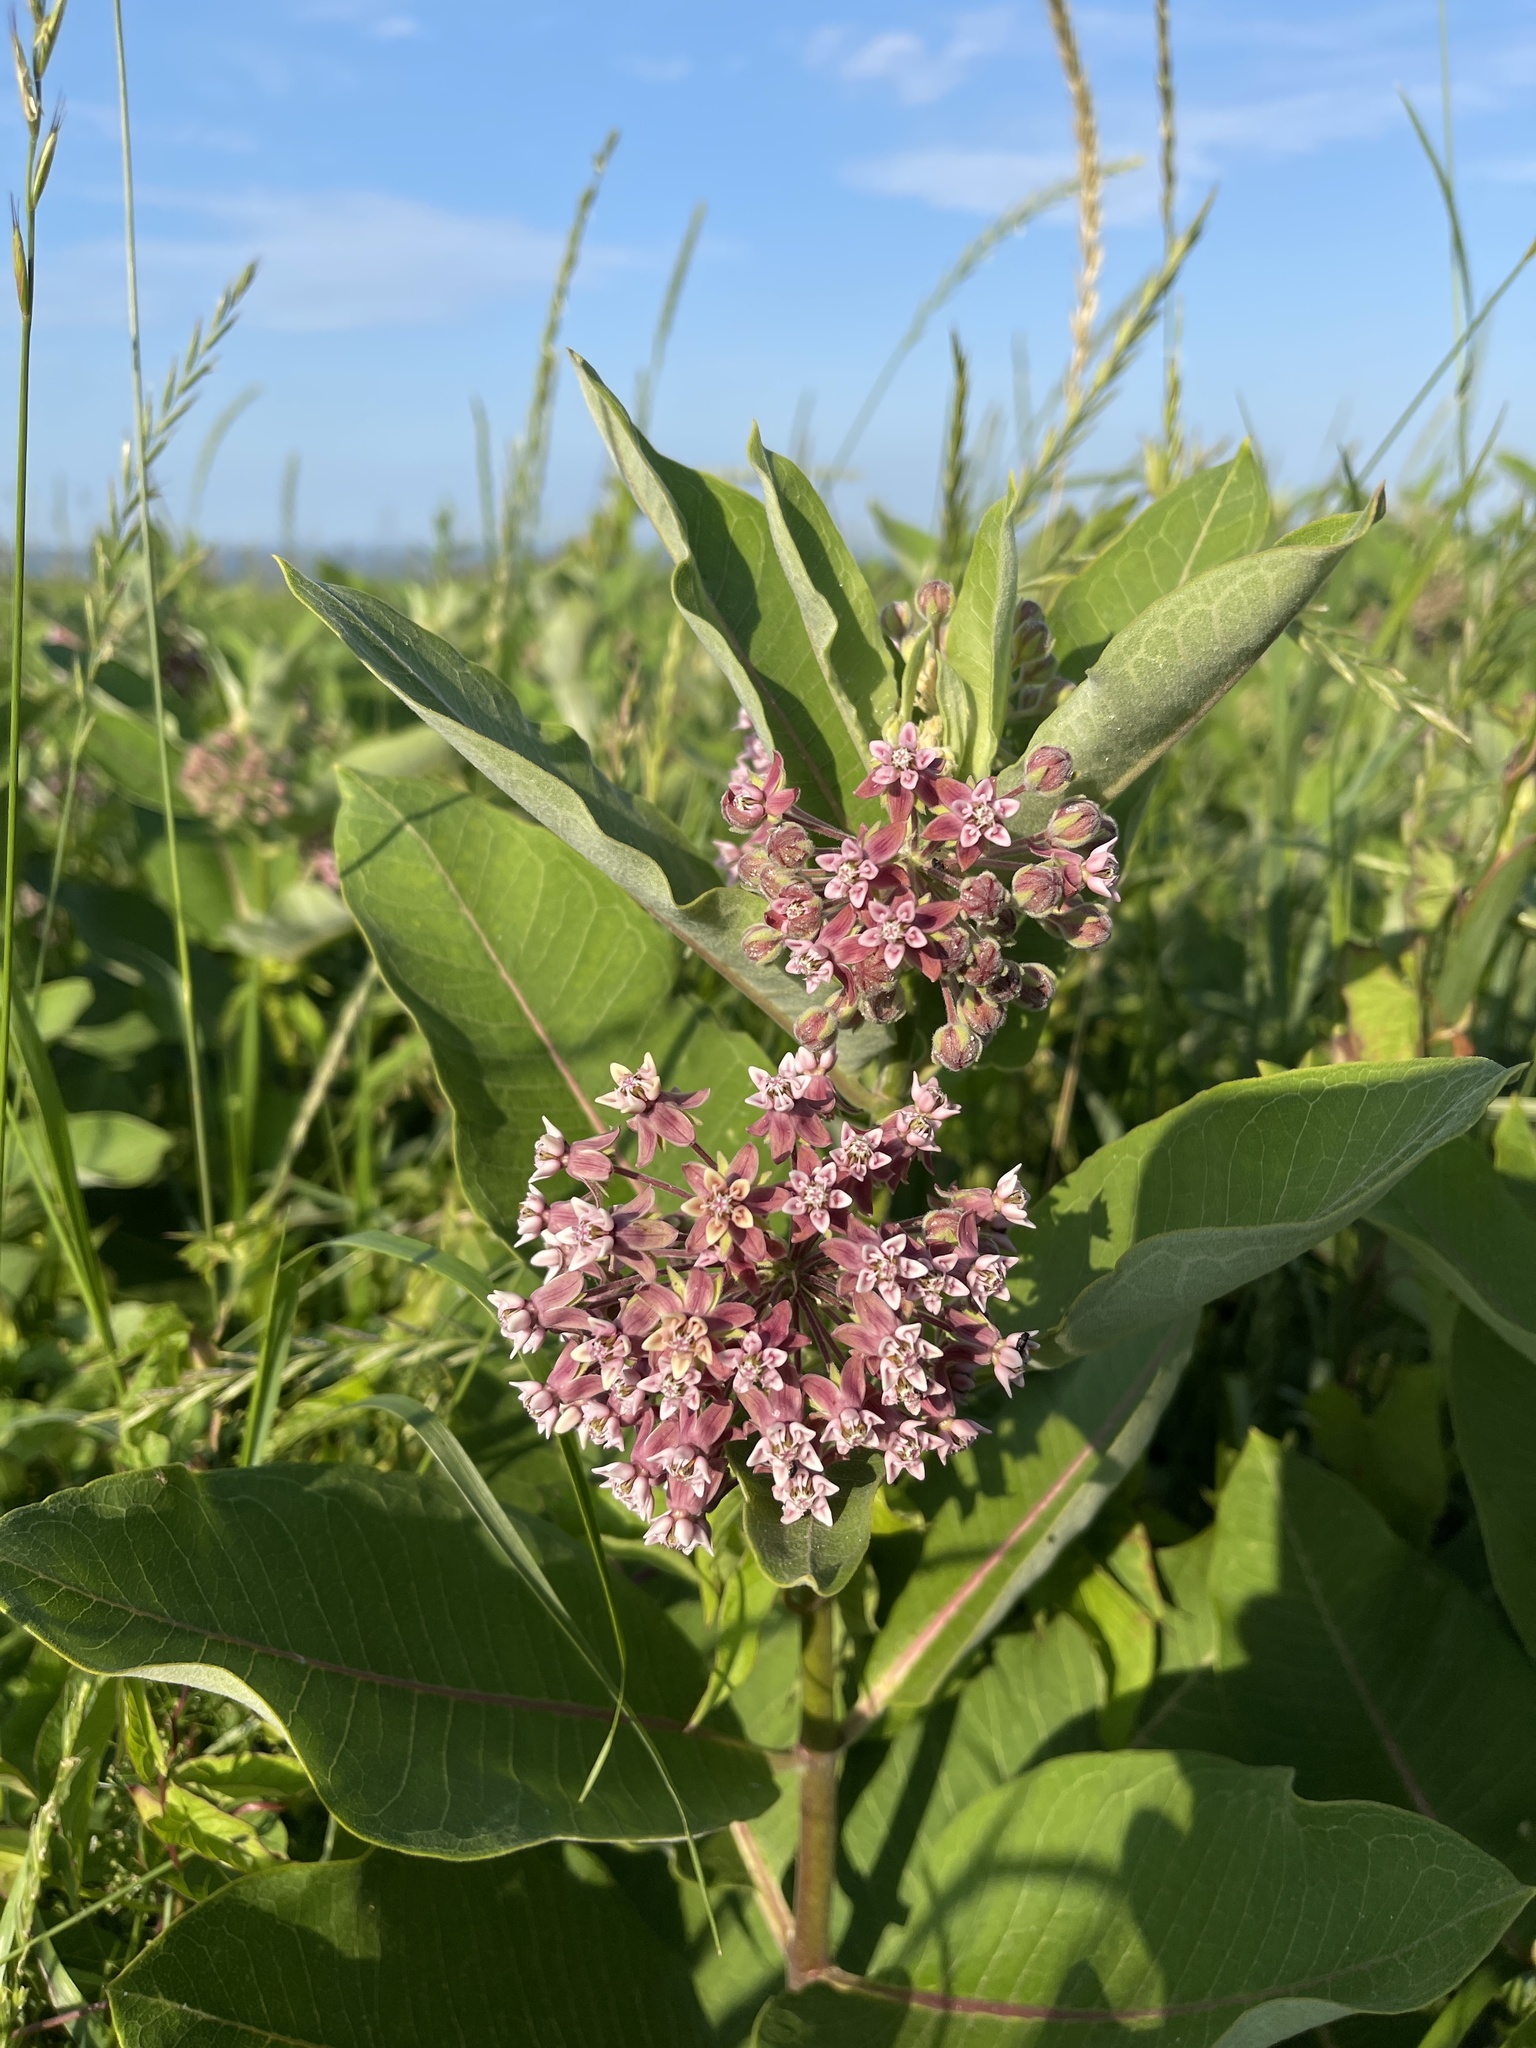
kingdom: Plantae
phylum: Tracheophyta
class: Magnoliopsida
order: Gentianales
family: Apocynaceae
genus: Asclepias
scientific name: Asclepias syriaca
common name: Common milkweed
